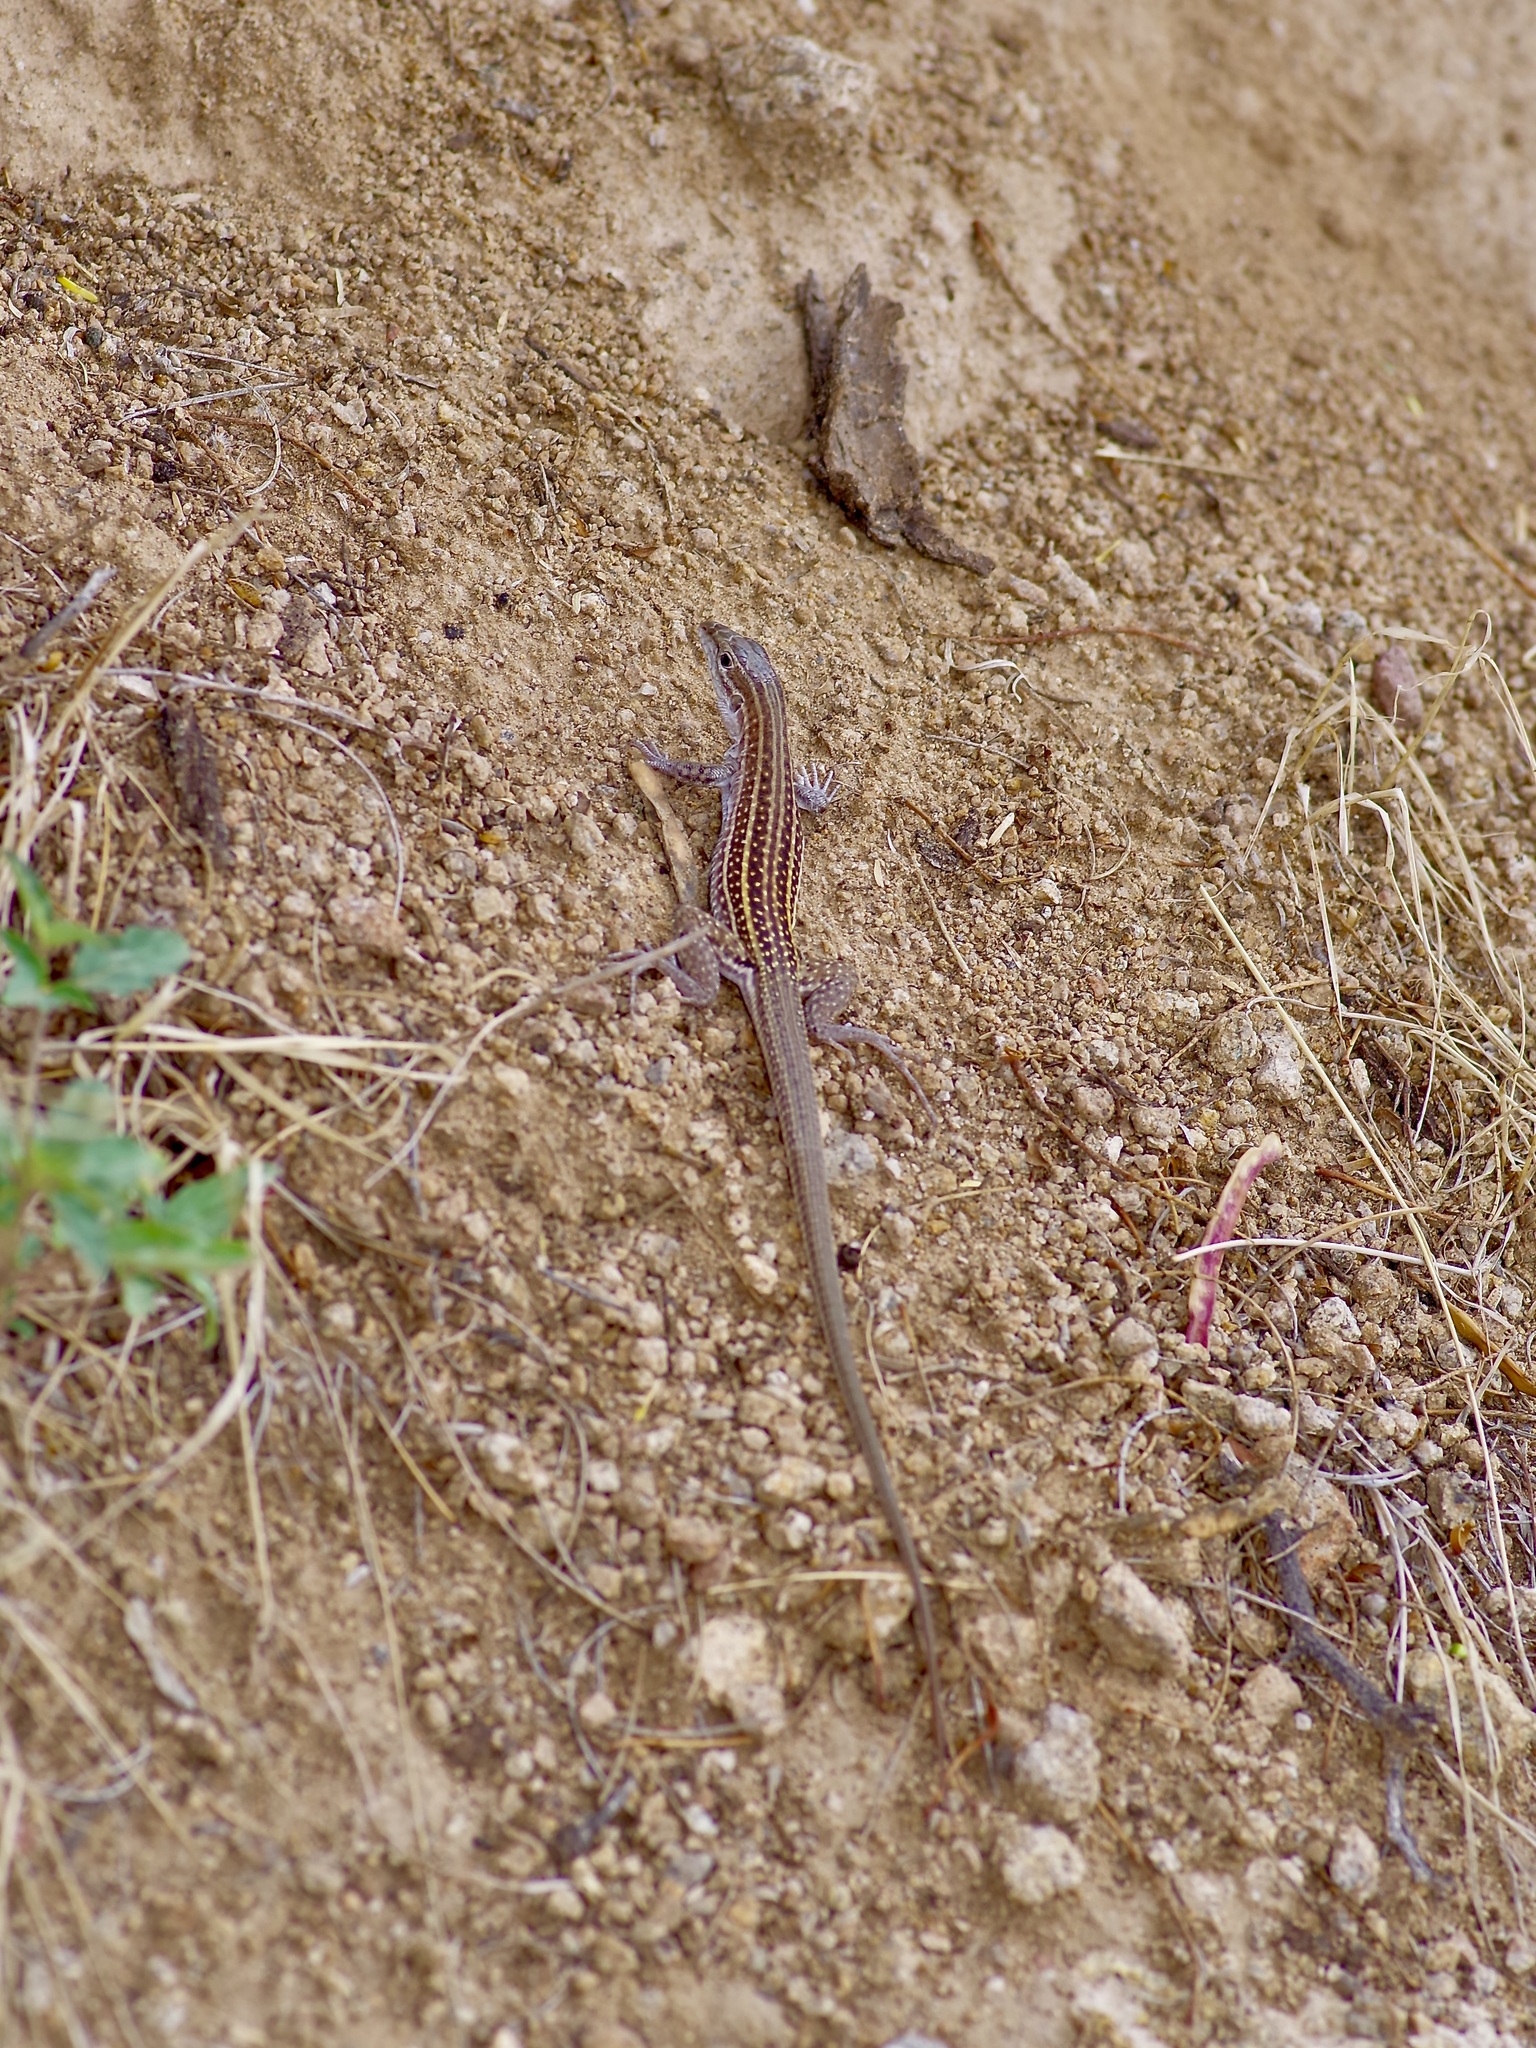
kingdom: Animalia
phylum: Chordata
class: Squamata
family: Teiidae
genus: Aspidoscelis
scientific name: Aspidoscelis exsanguis
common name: Chihuahuan spotted whiptail
